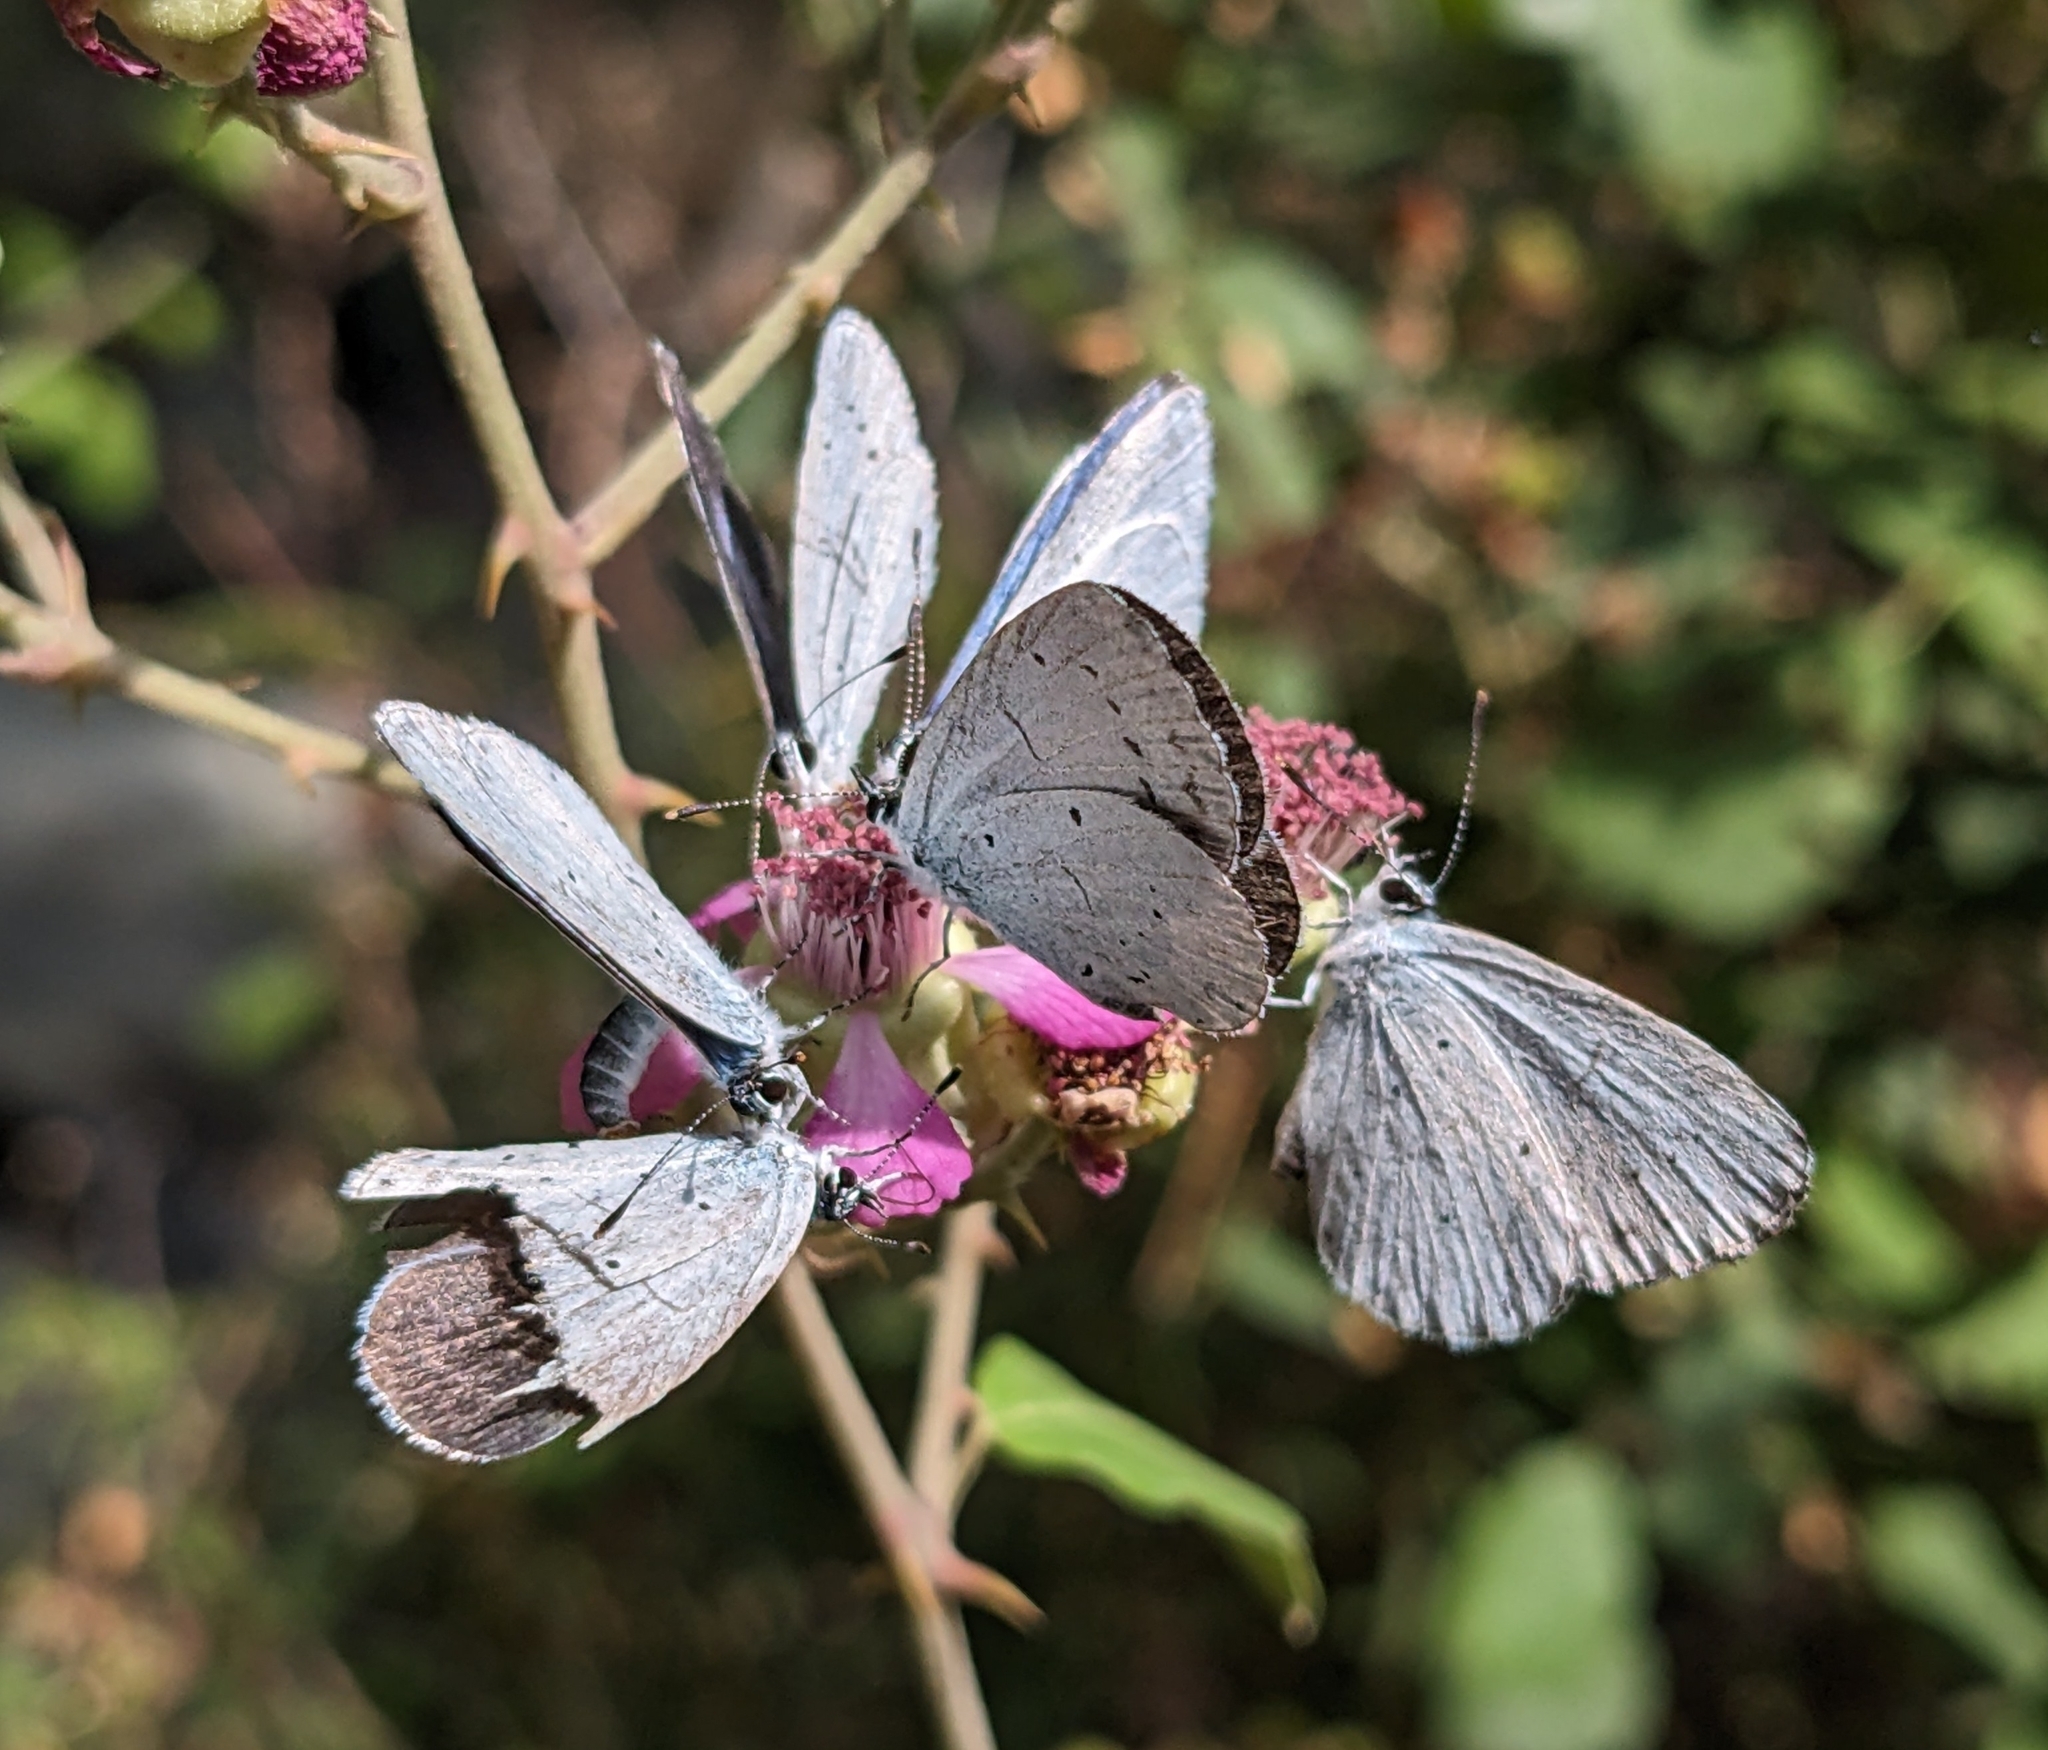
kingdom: Animalia
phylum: Arthropoda
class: Insecta
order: Lepidoptera
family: Lycaenidae
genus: Celastrina
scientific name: Celastrina argiolus
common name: Holly blue
